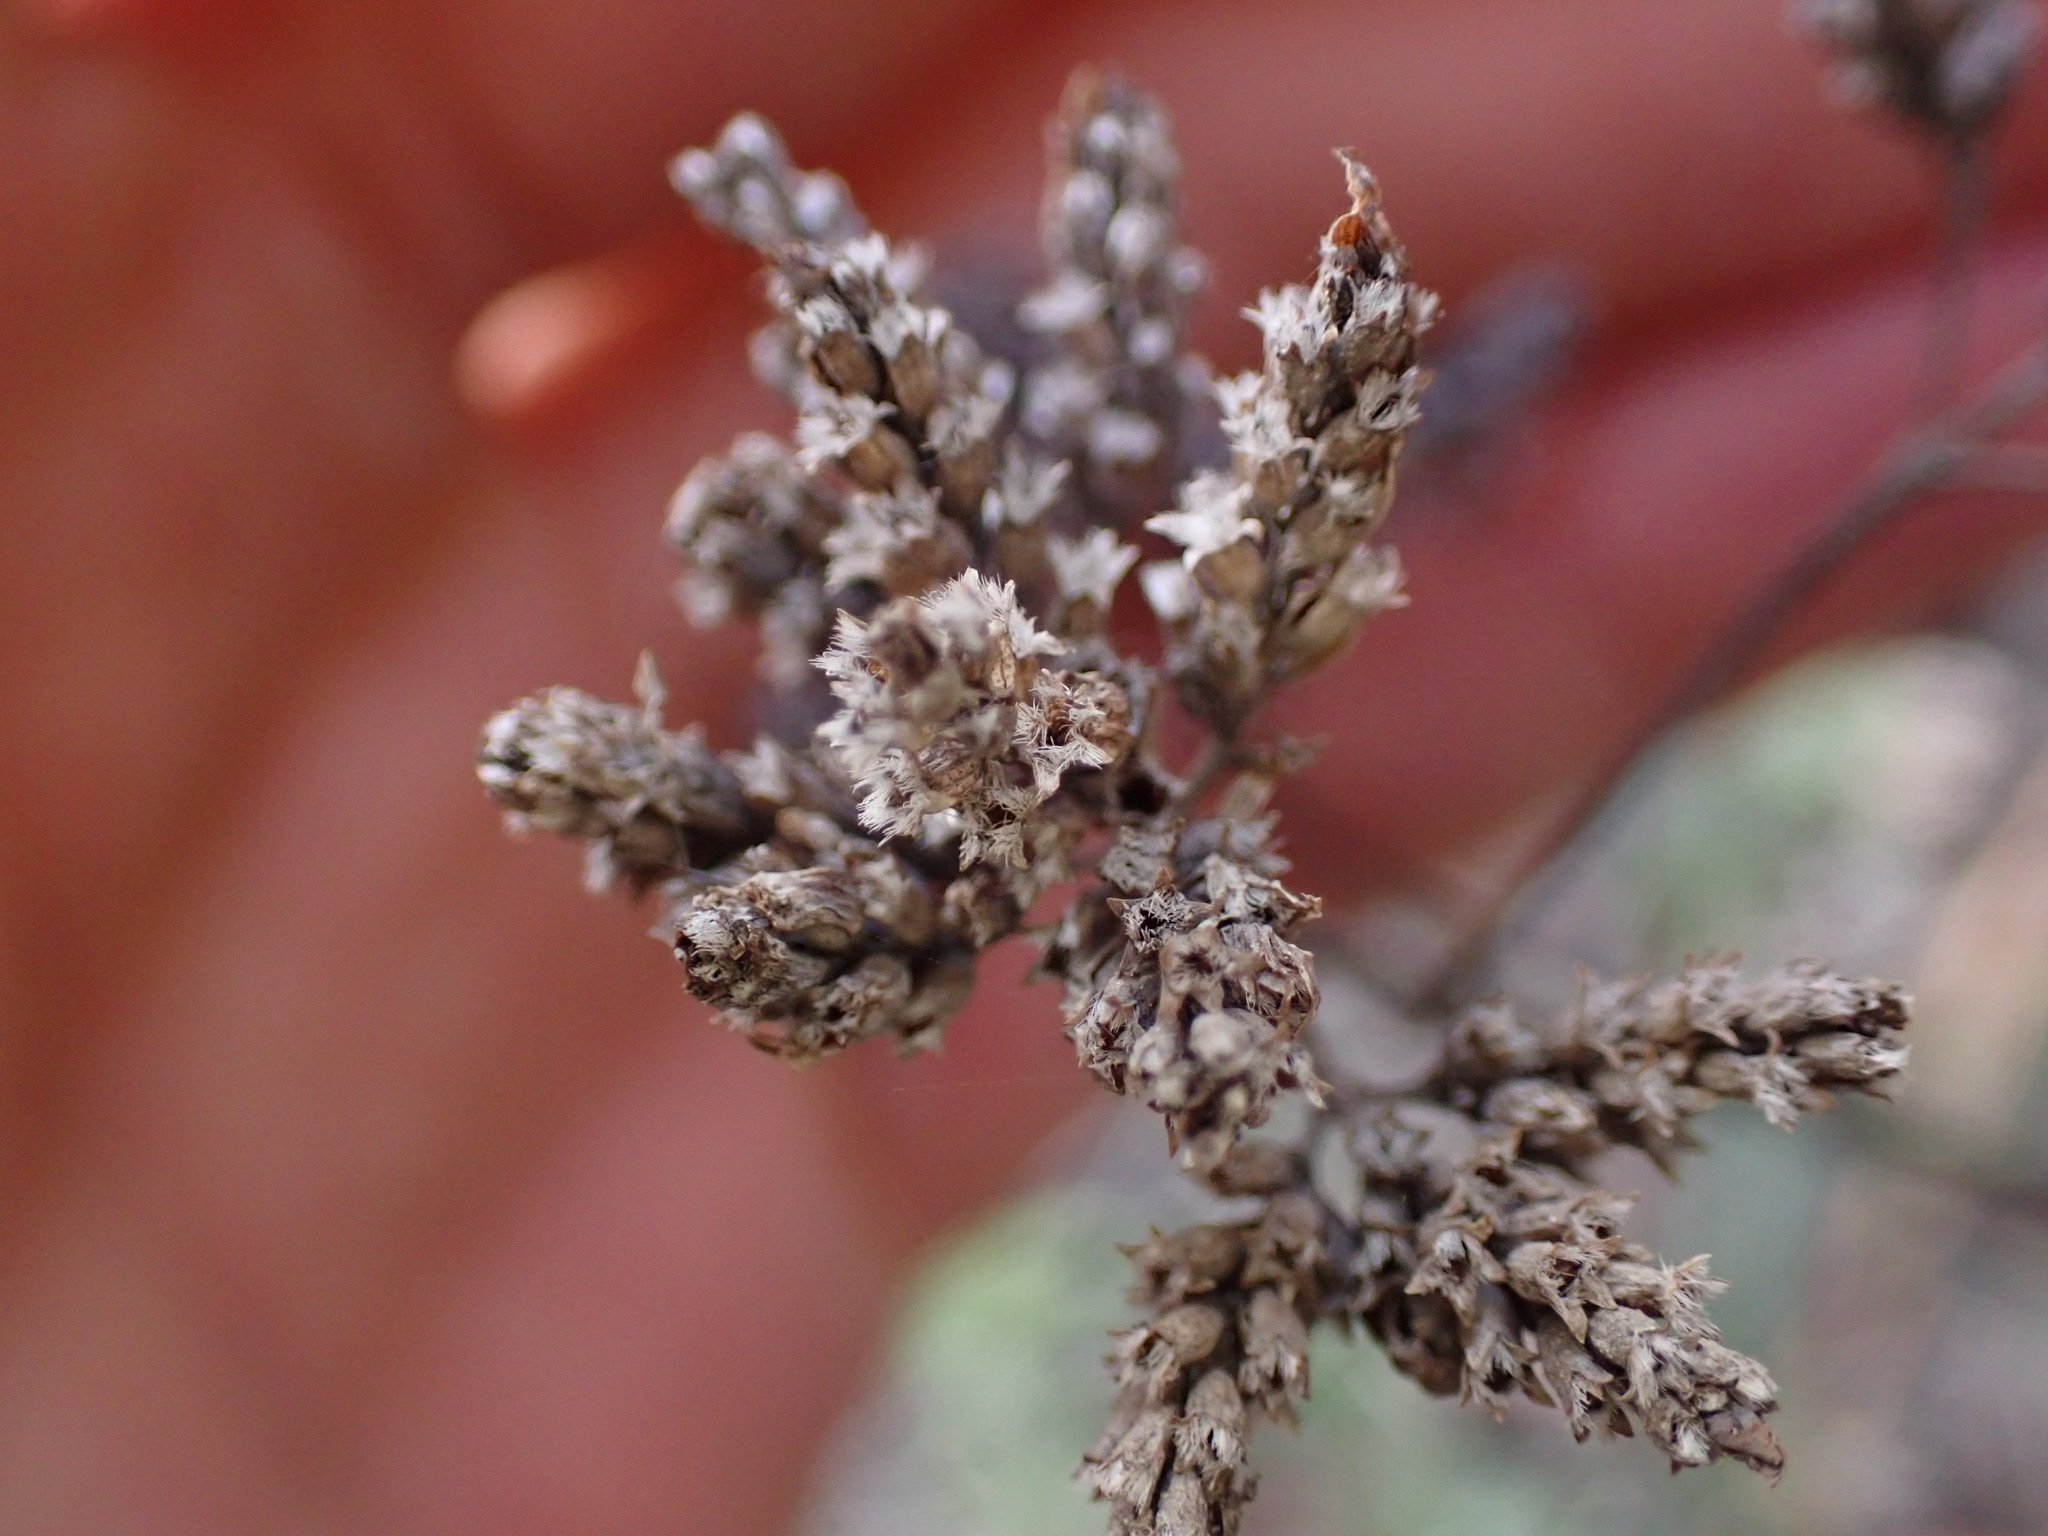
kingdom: Plantae
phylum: Tracheophyta
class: Magnoliopsida
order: Lamiales
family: Lamiaceae
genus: Origanum
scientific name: Origanum vulgare
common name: Wild marjoram
